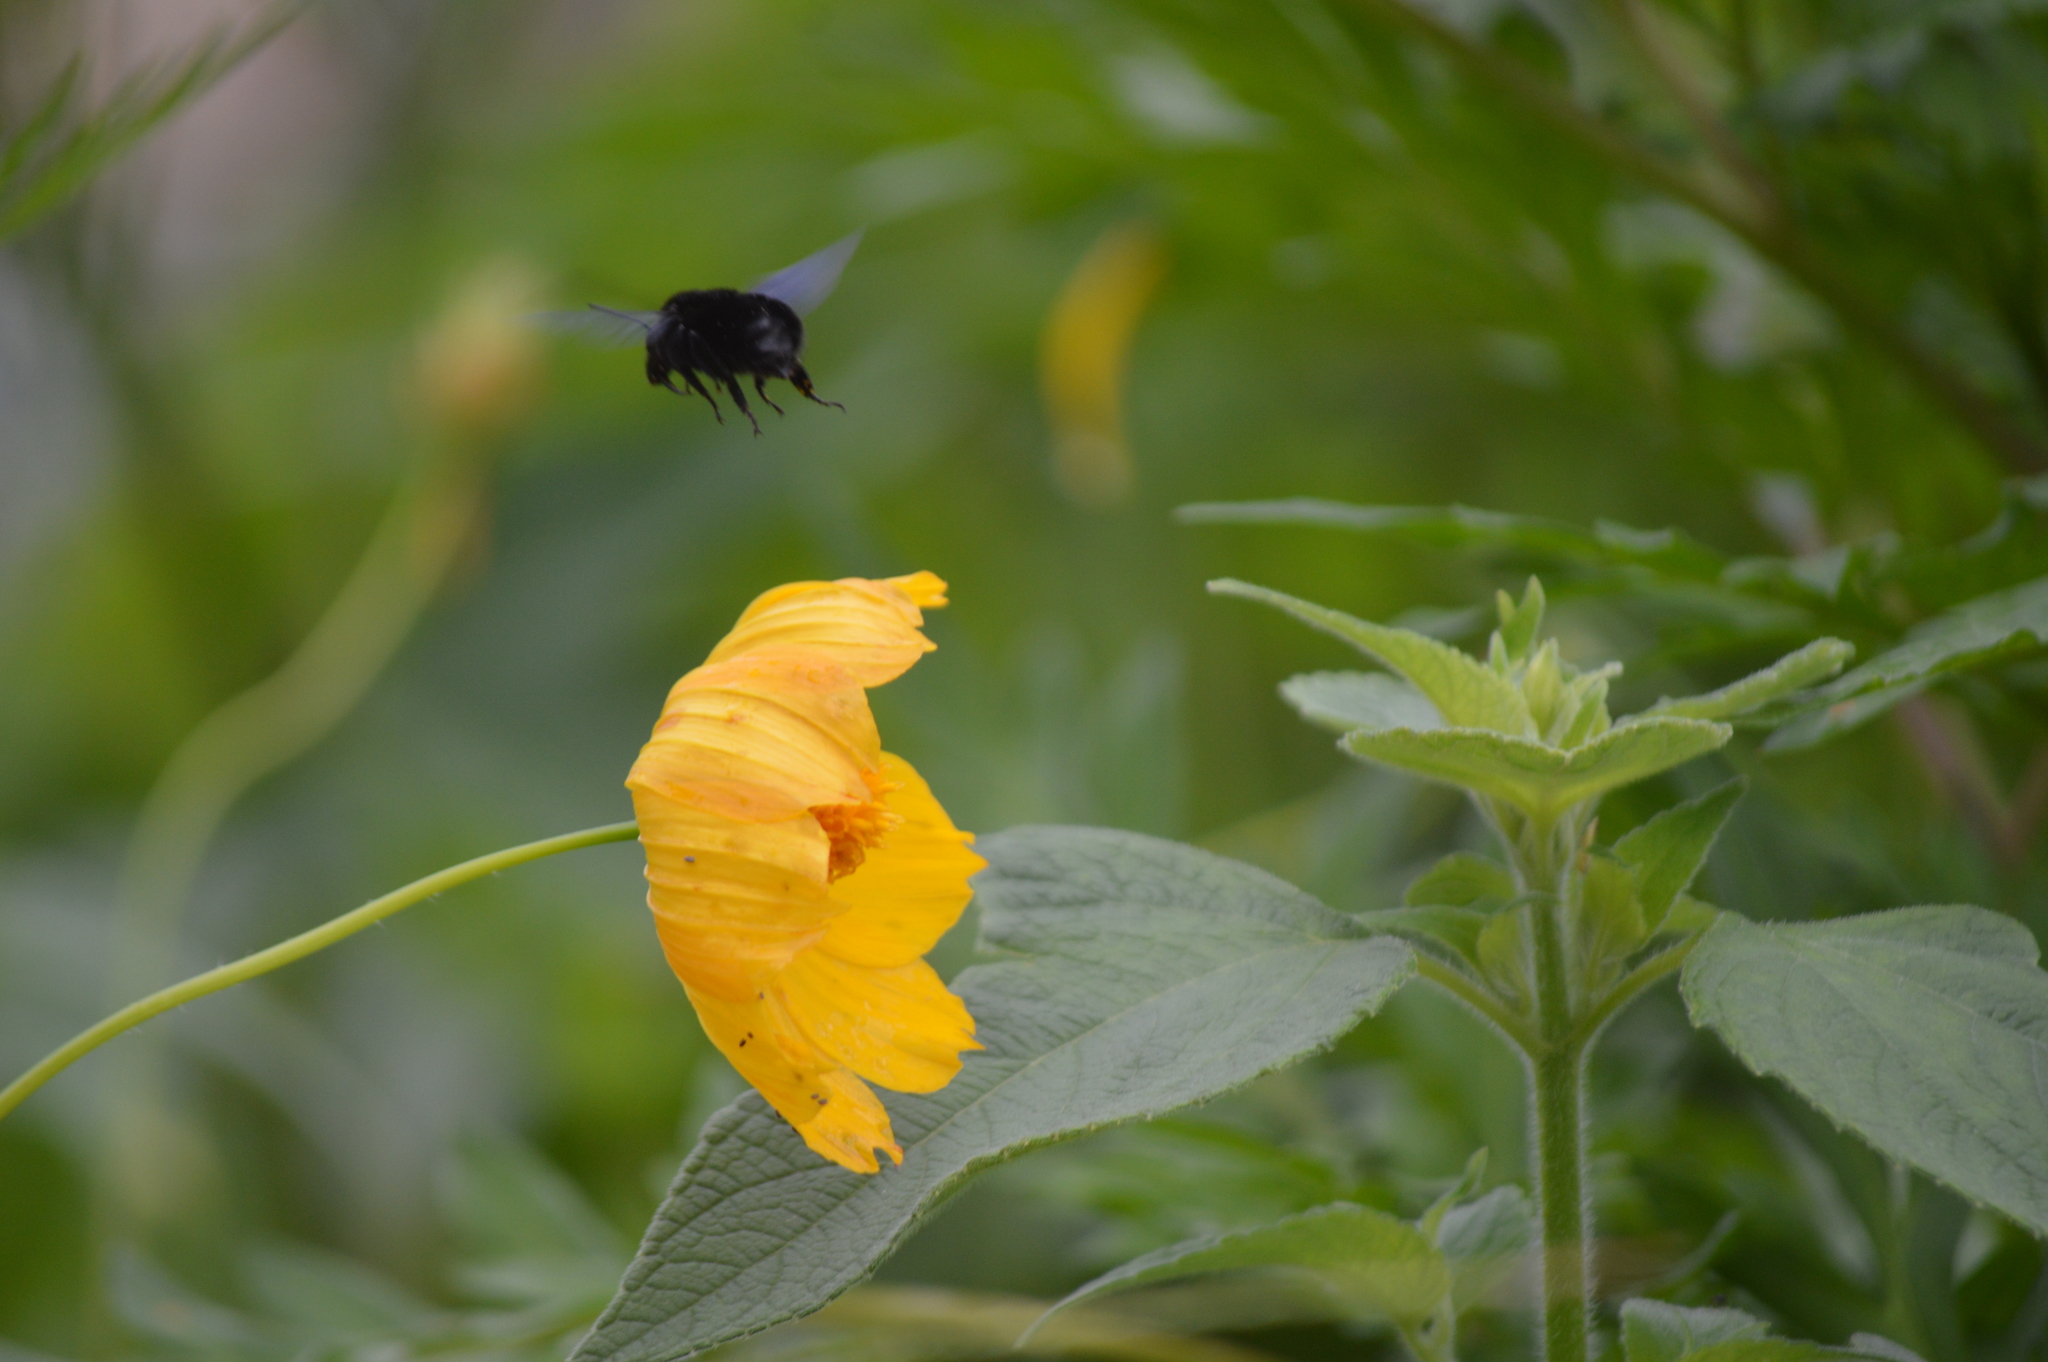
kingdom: Animalia
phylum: Arthropoda
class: Insecta
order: Hymenoptera
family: Apidae
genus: Bombus
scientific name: Bombus morio
